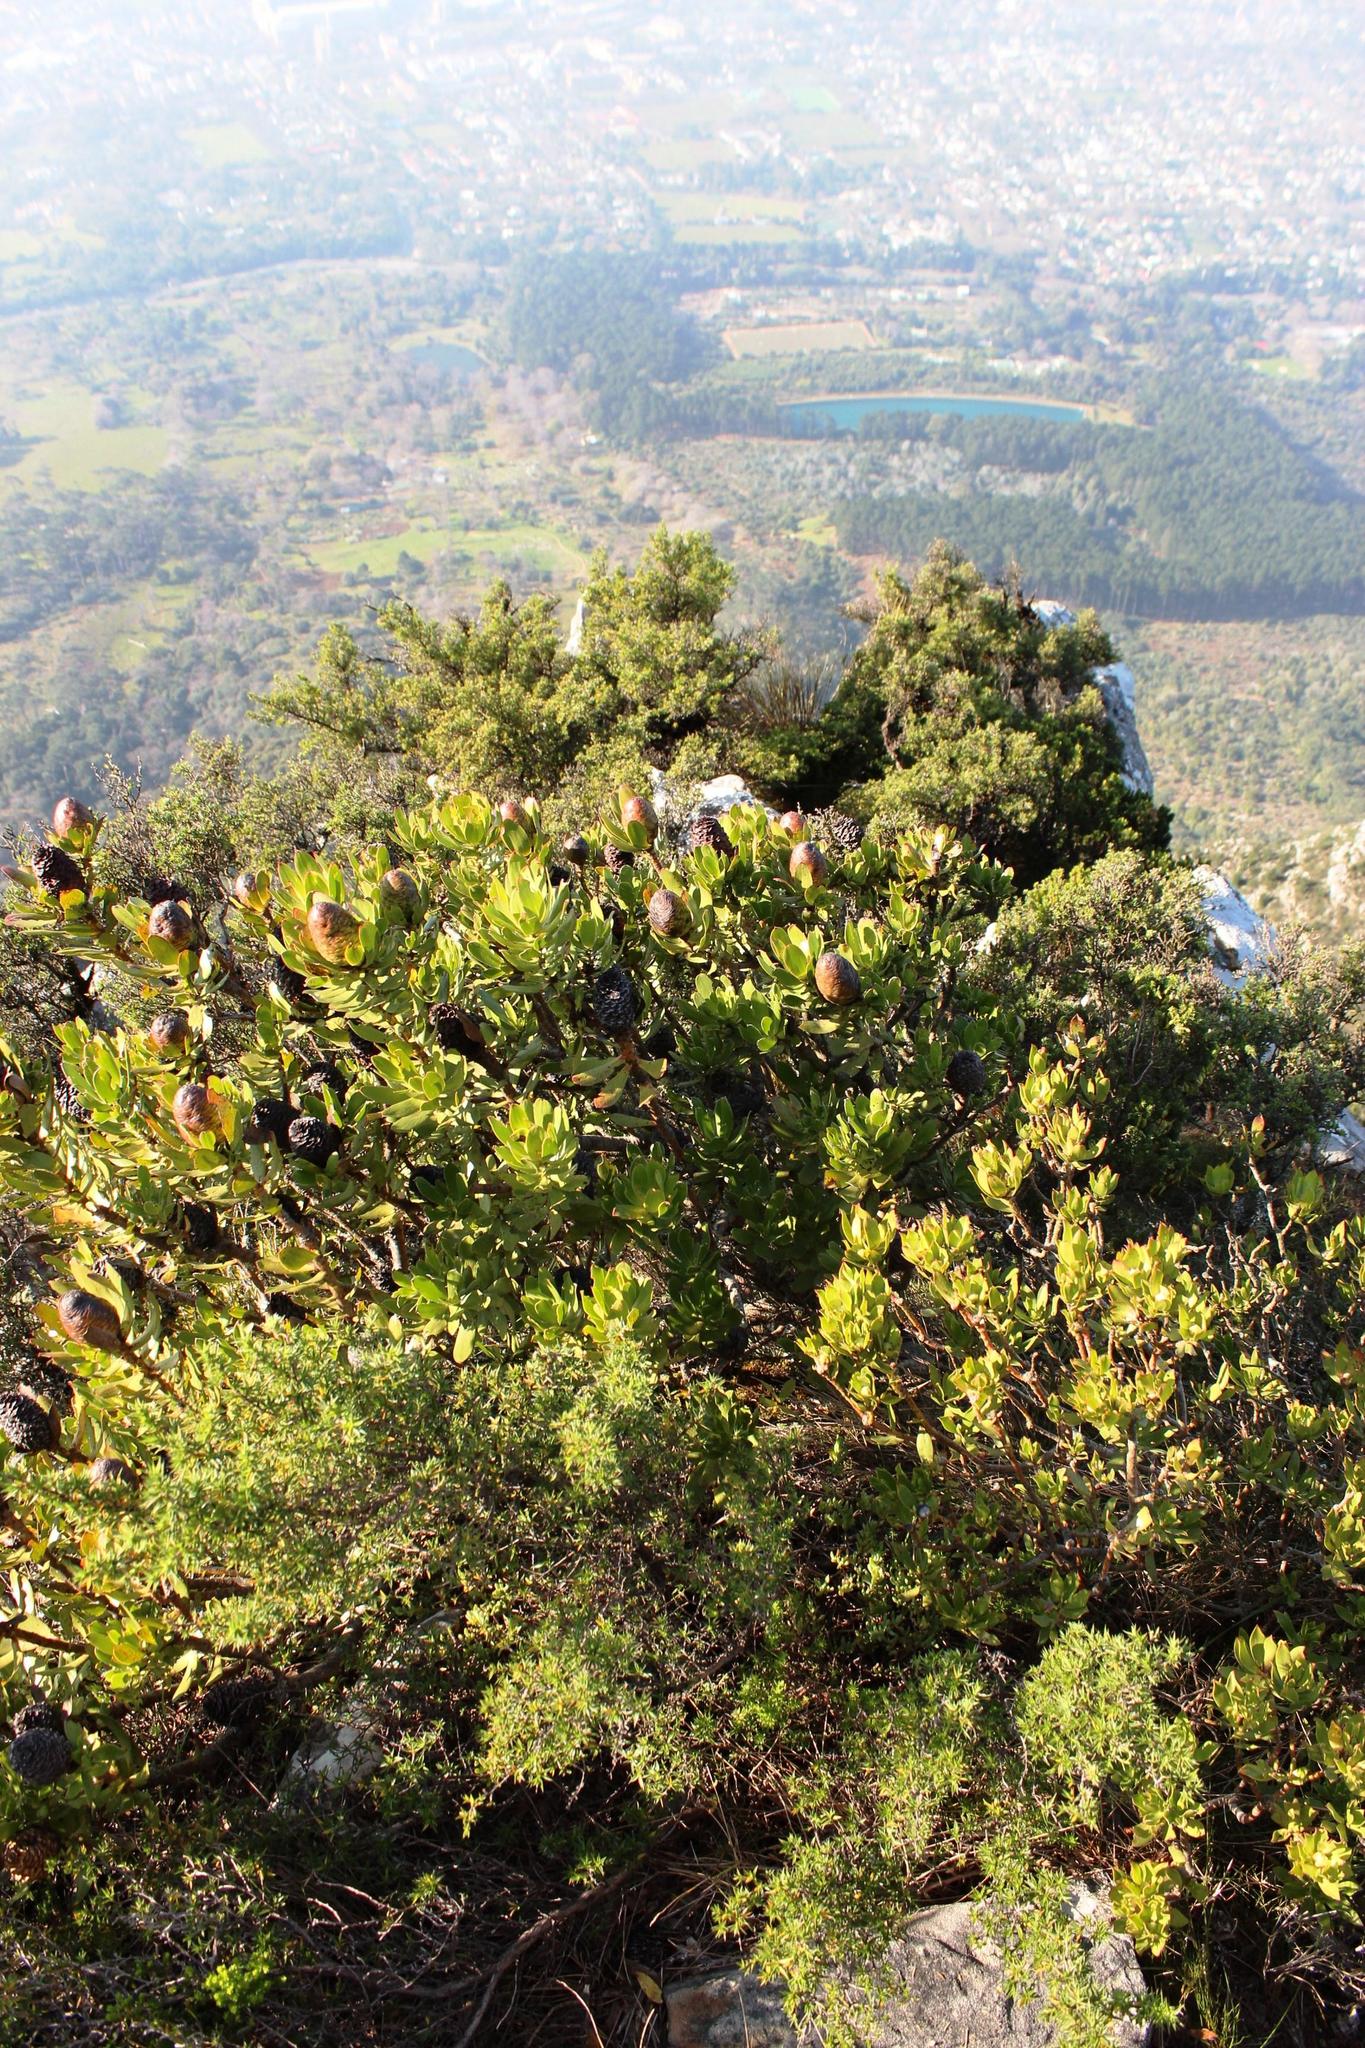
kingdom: Plantae
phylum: Tracheophyta
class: Magnoliopsida
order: Proteales
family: Proteaceae
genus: Leucadendron
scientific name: Leucadendron strobilinum
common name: Mountain rose
